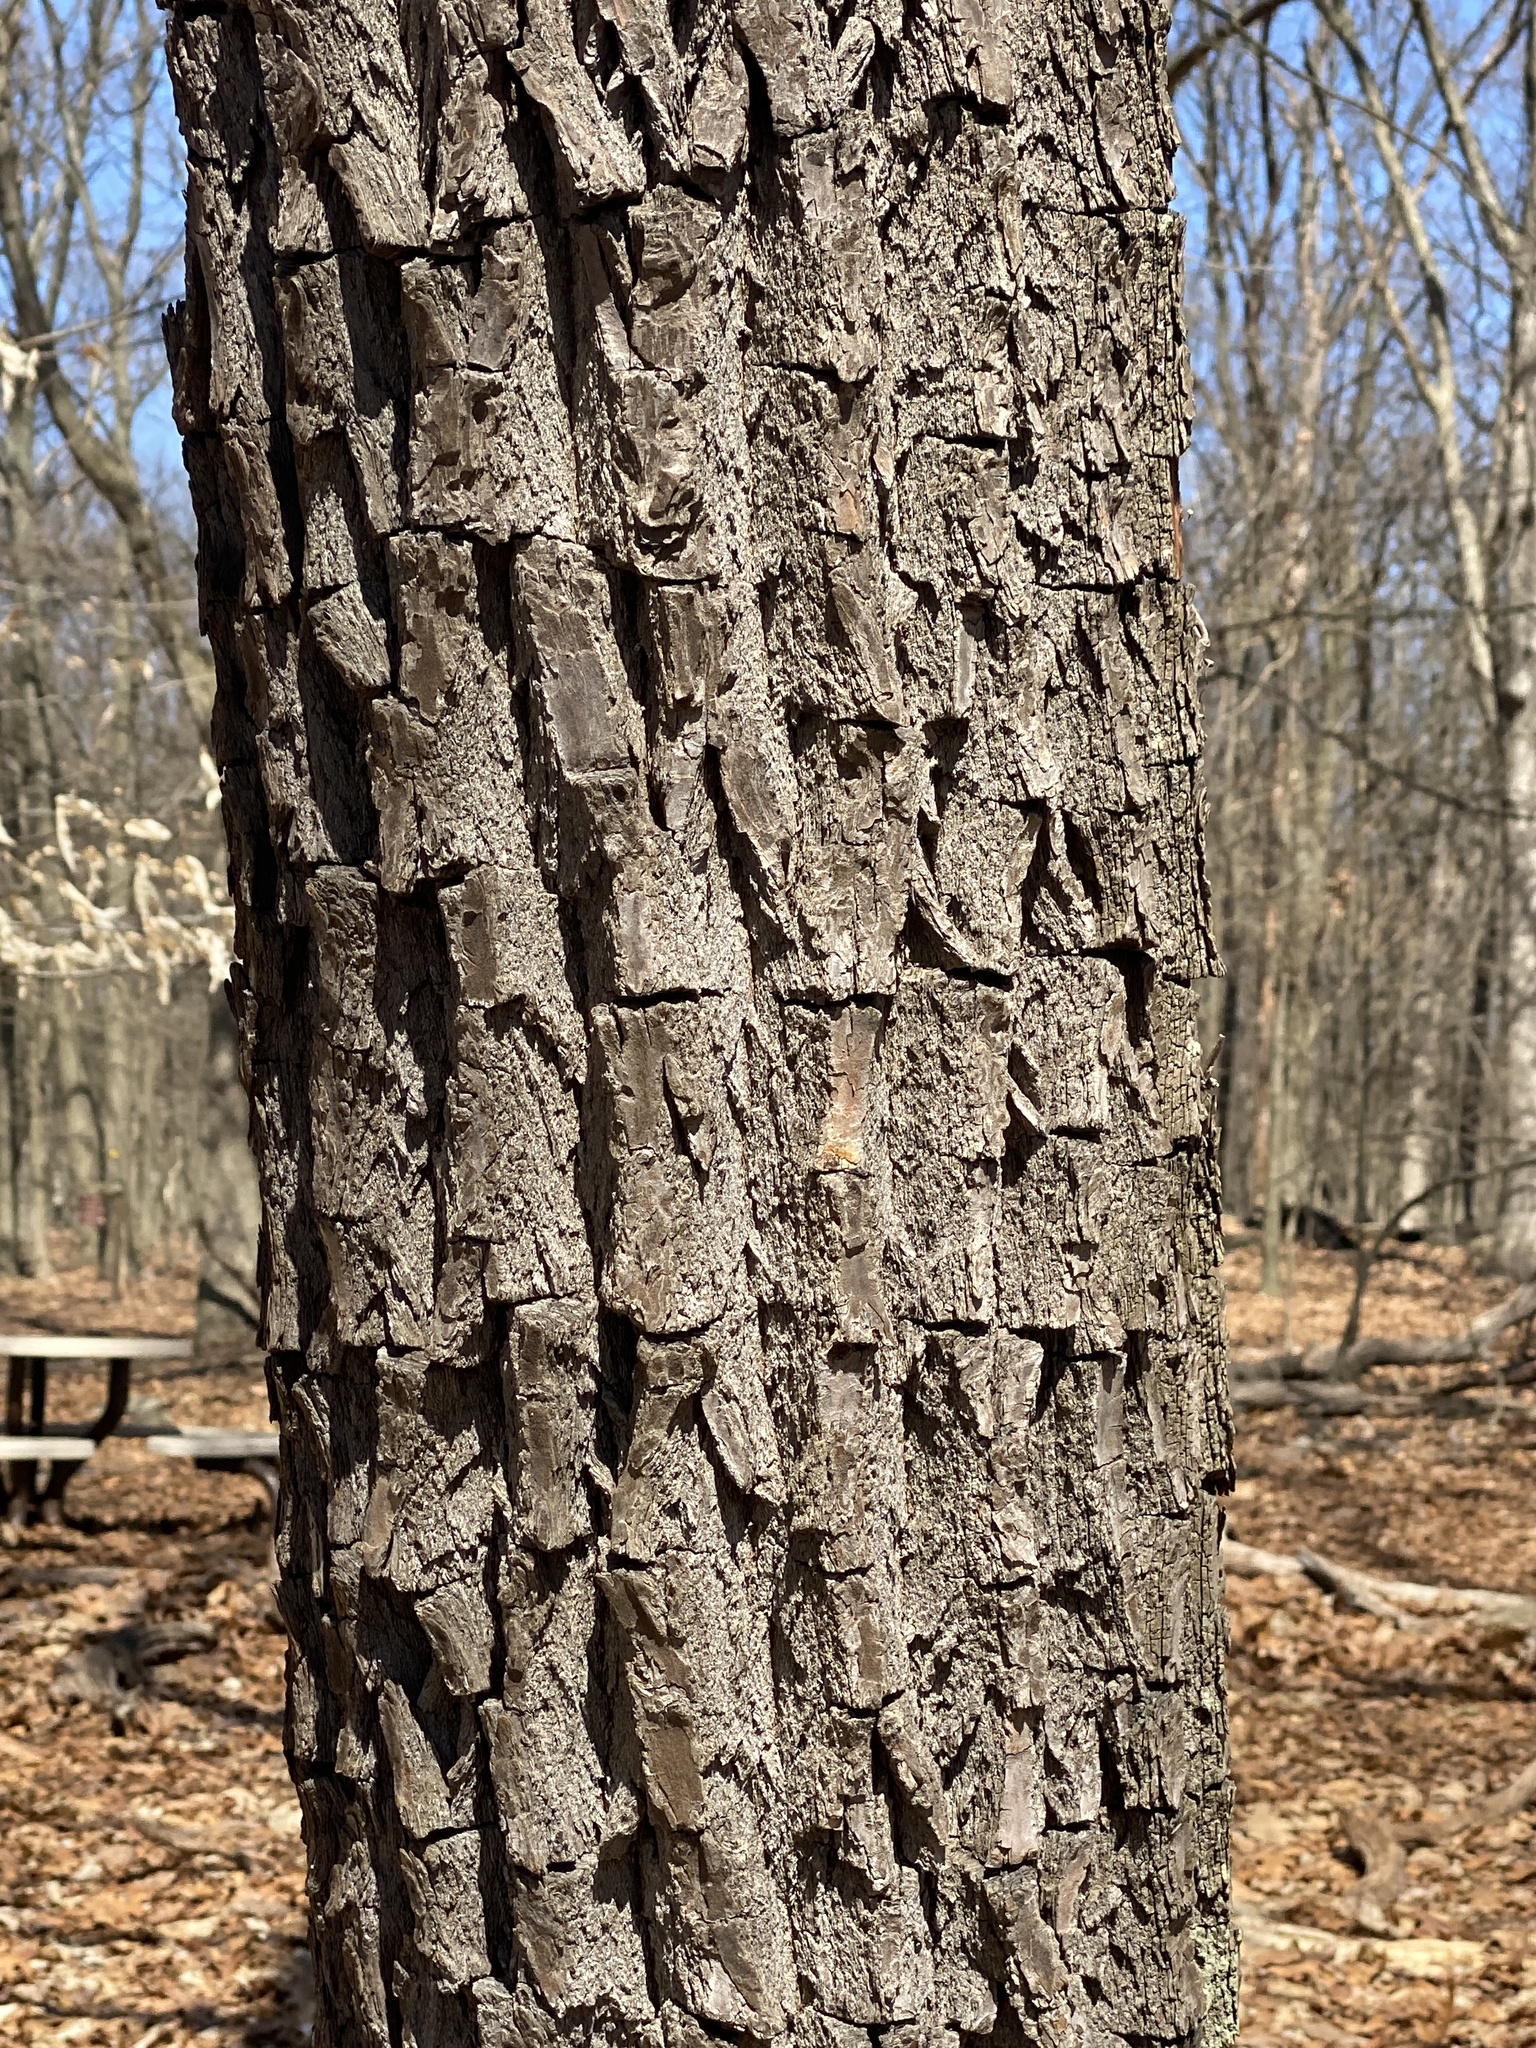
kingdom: Plantae
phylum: Tracheophyta
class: Magnoliopsida
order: Laurales
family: Lauraceae
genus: Sassafras
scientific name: Sassafras albidum
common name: Sassafras
